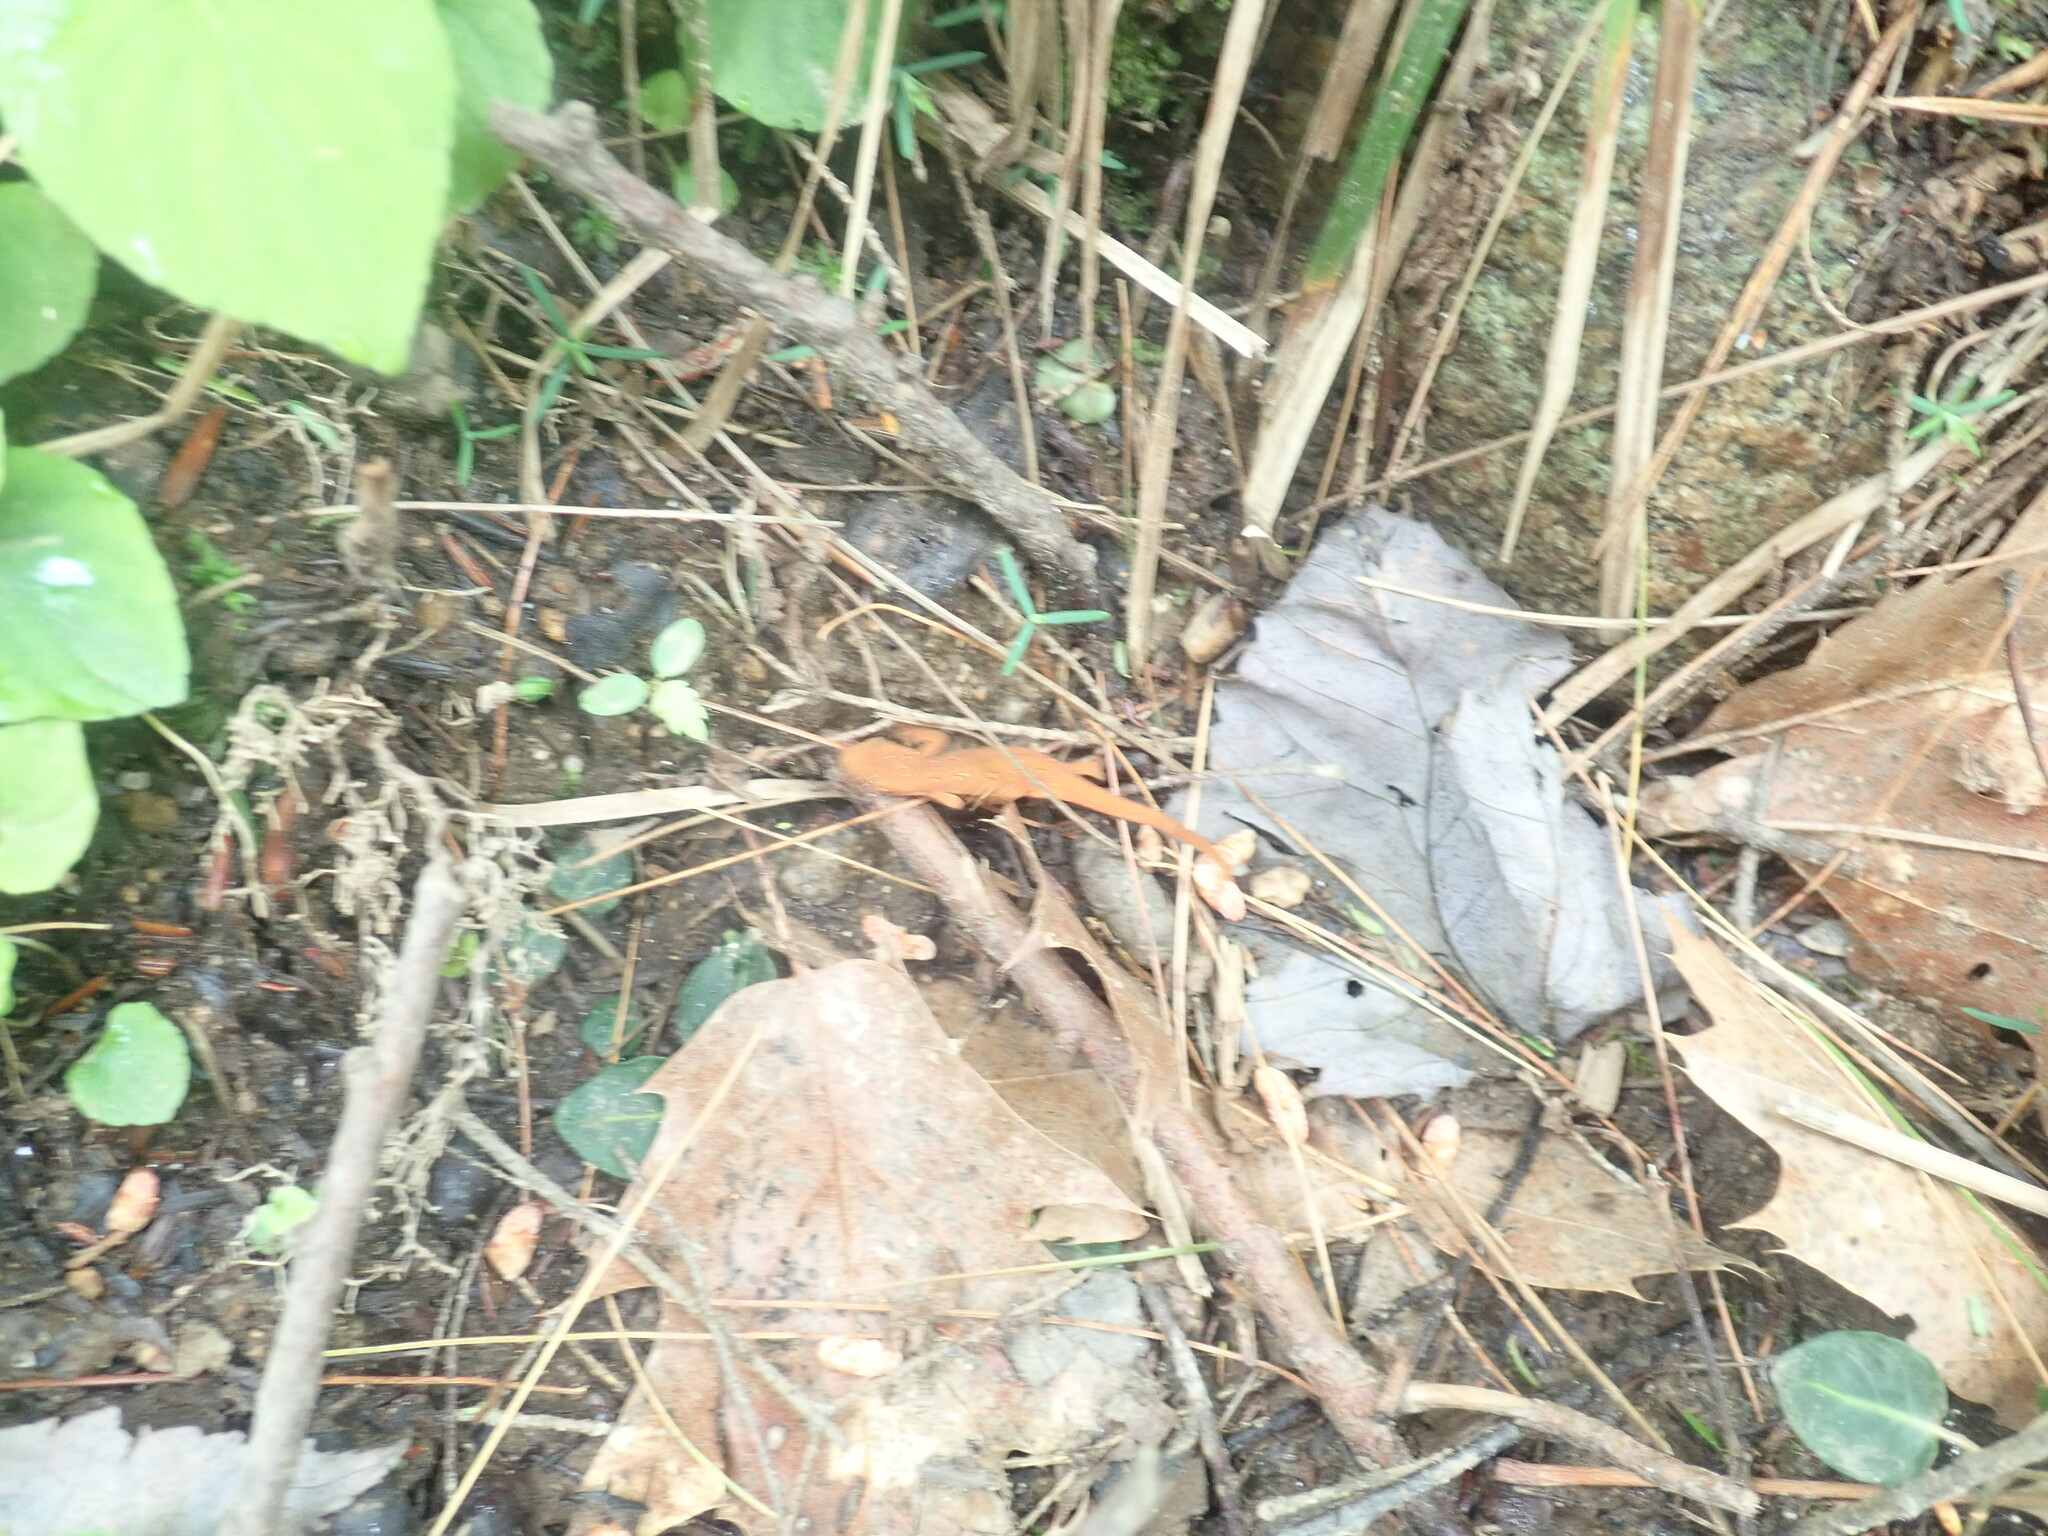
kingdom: Animalia
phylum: Chordata
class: Amphibia
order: Caudata
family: Salamandridae
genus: Notophthalmus
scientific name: Notophthalmus viridescens
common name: Eastern newt
